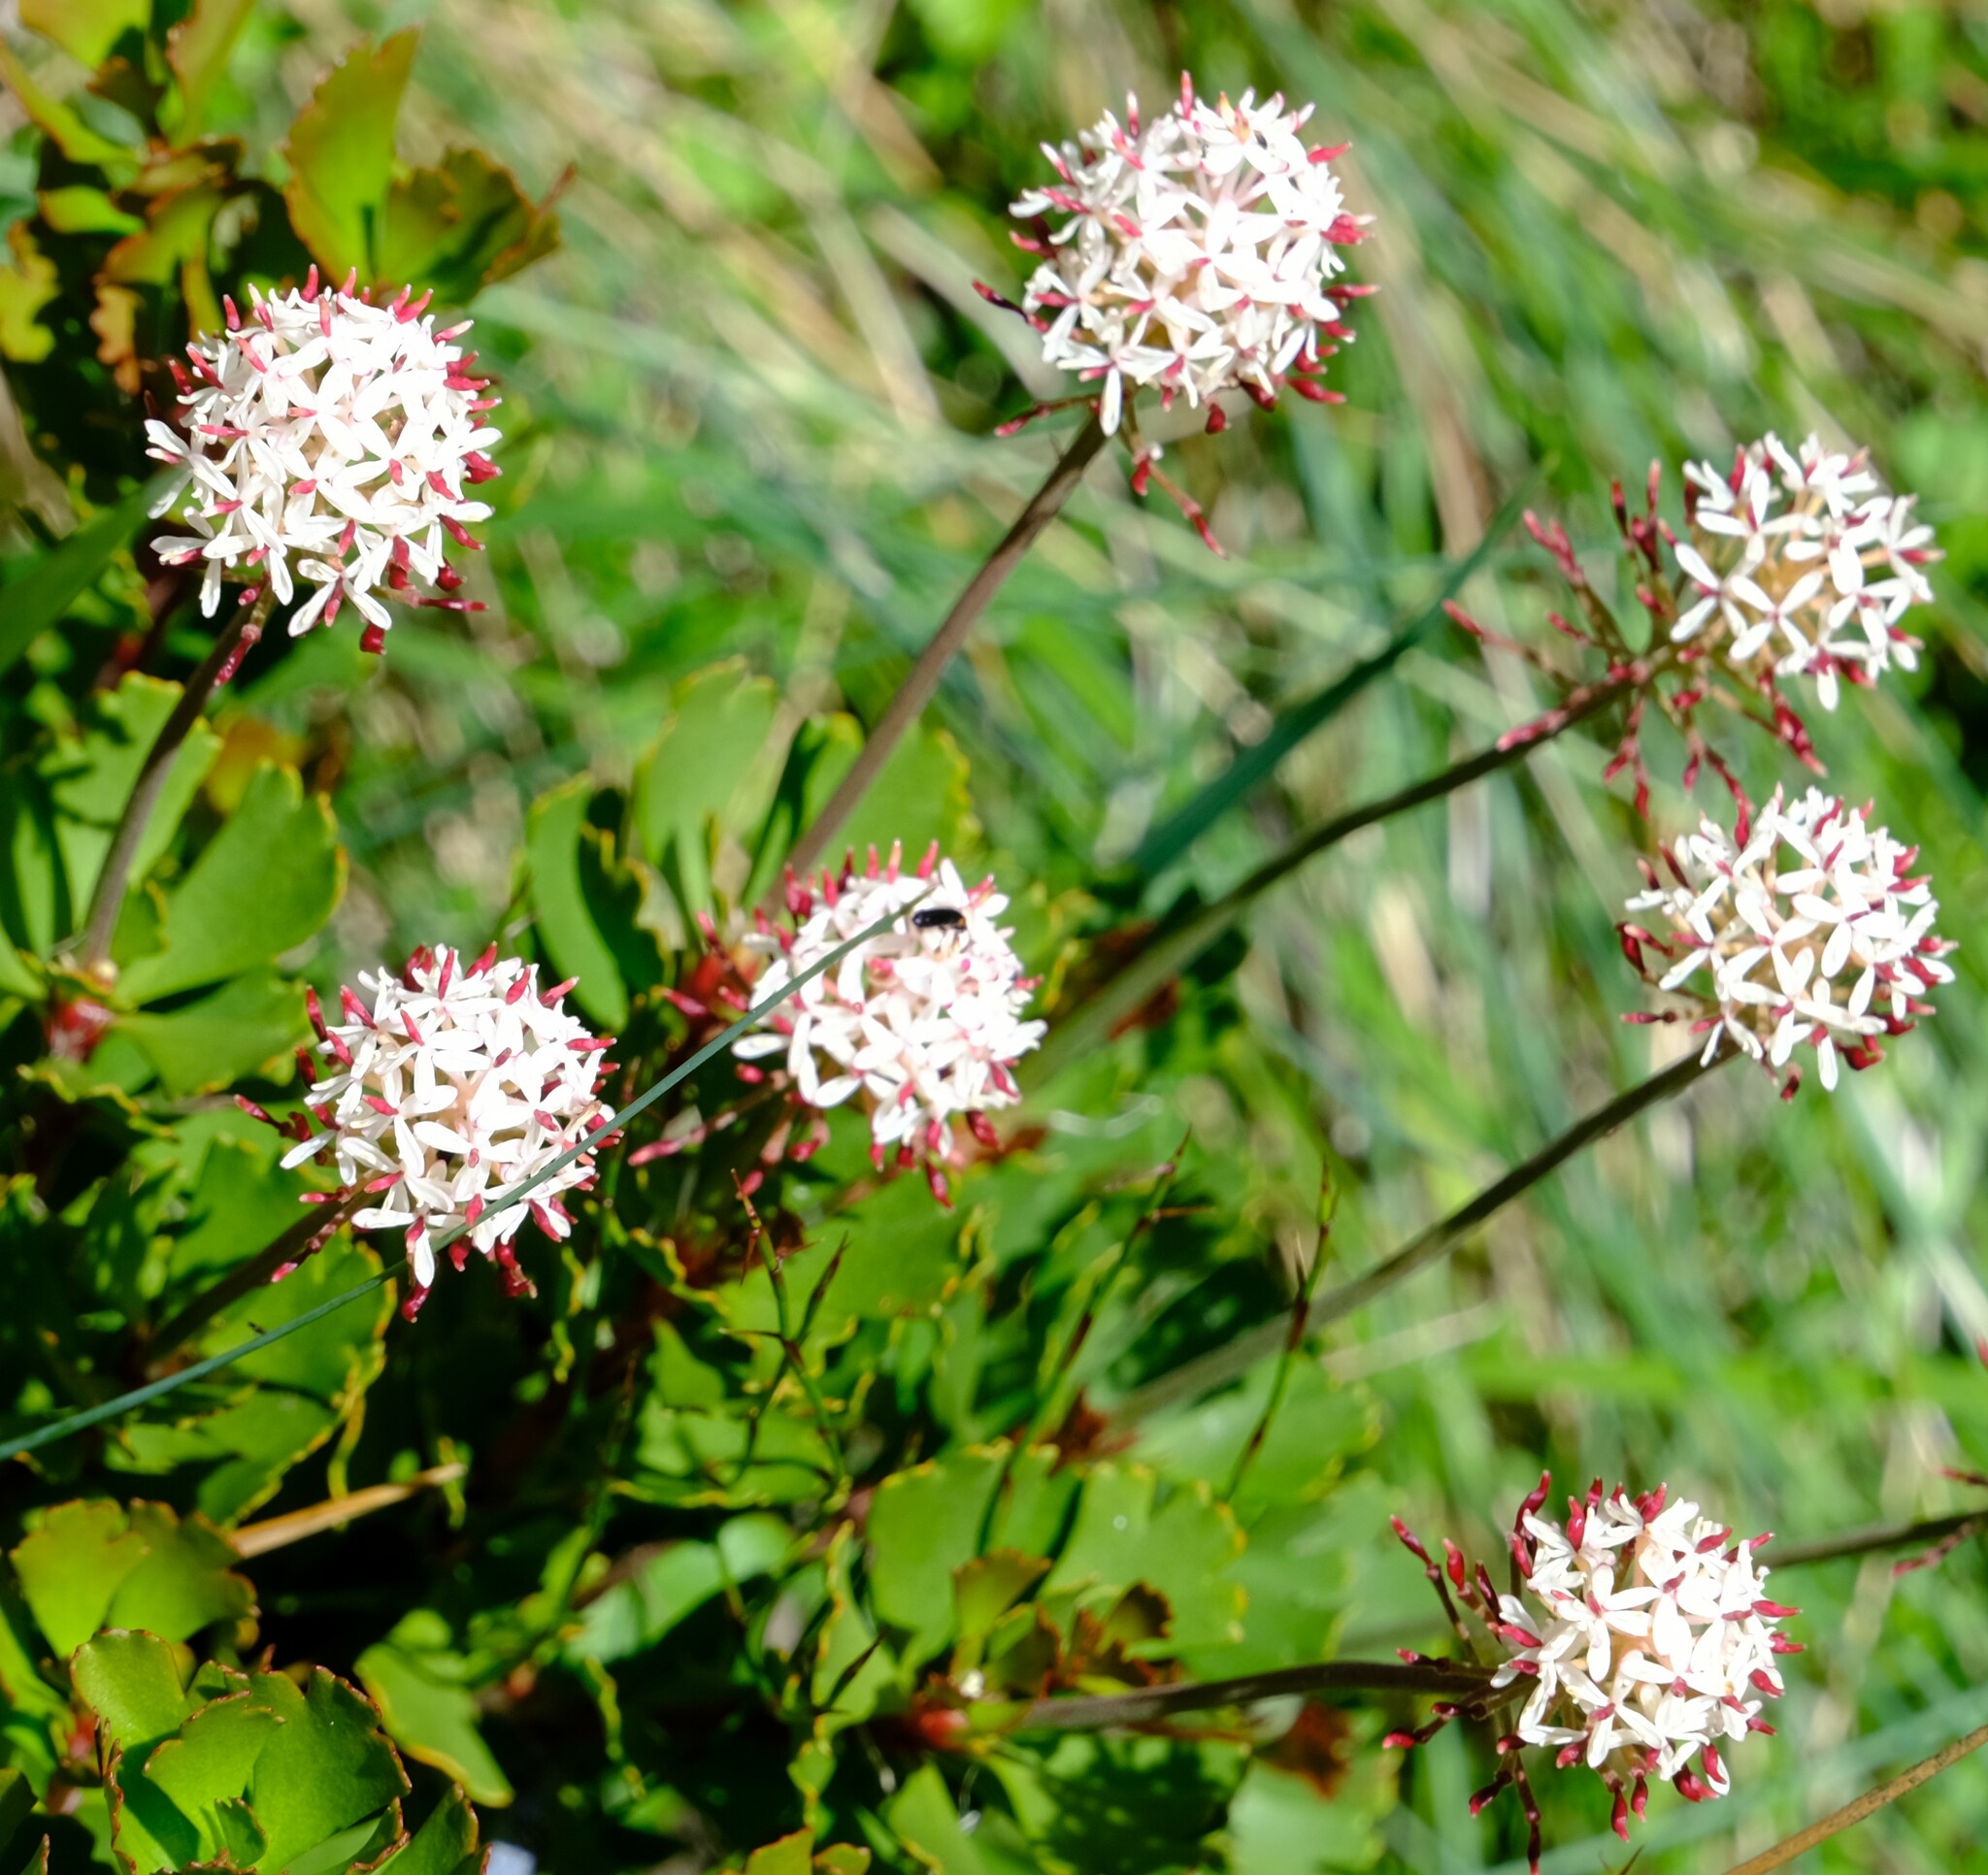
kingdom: Plantae
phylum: Tracheophyta
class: Magnoliopsida
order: Proteales
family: Proteaceae
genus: Bellendena
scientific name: Bellendena montana
